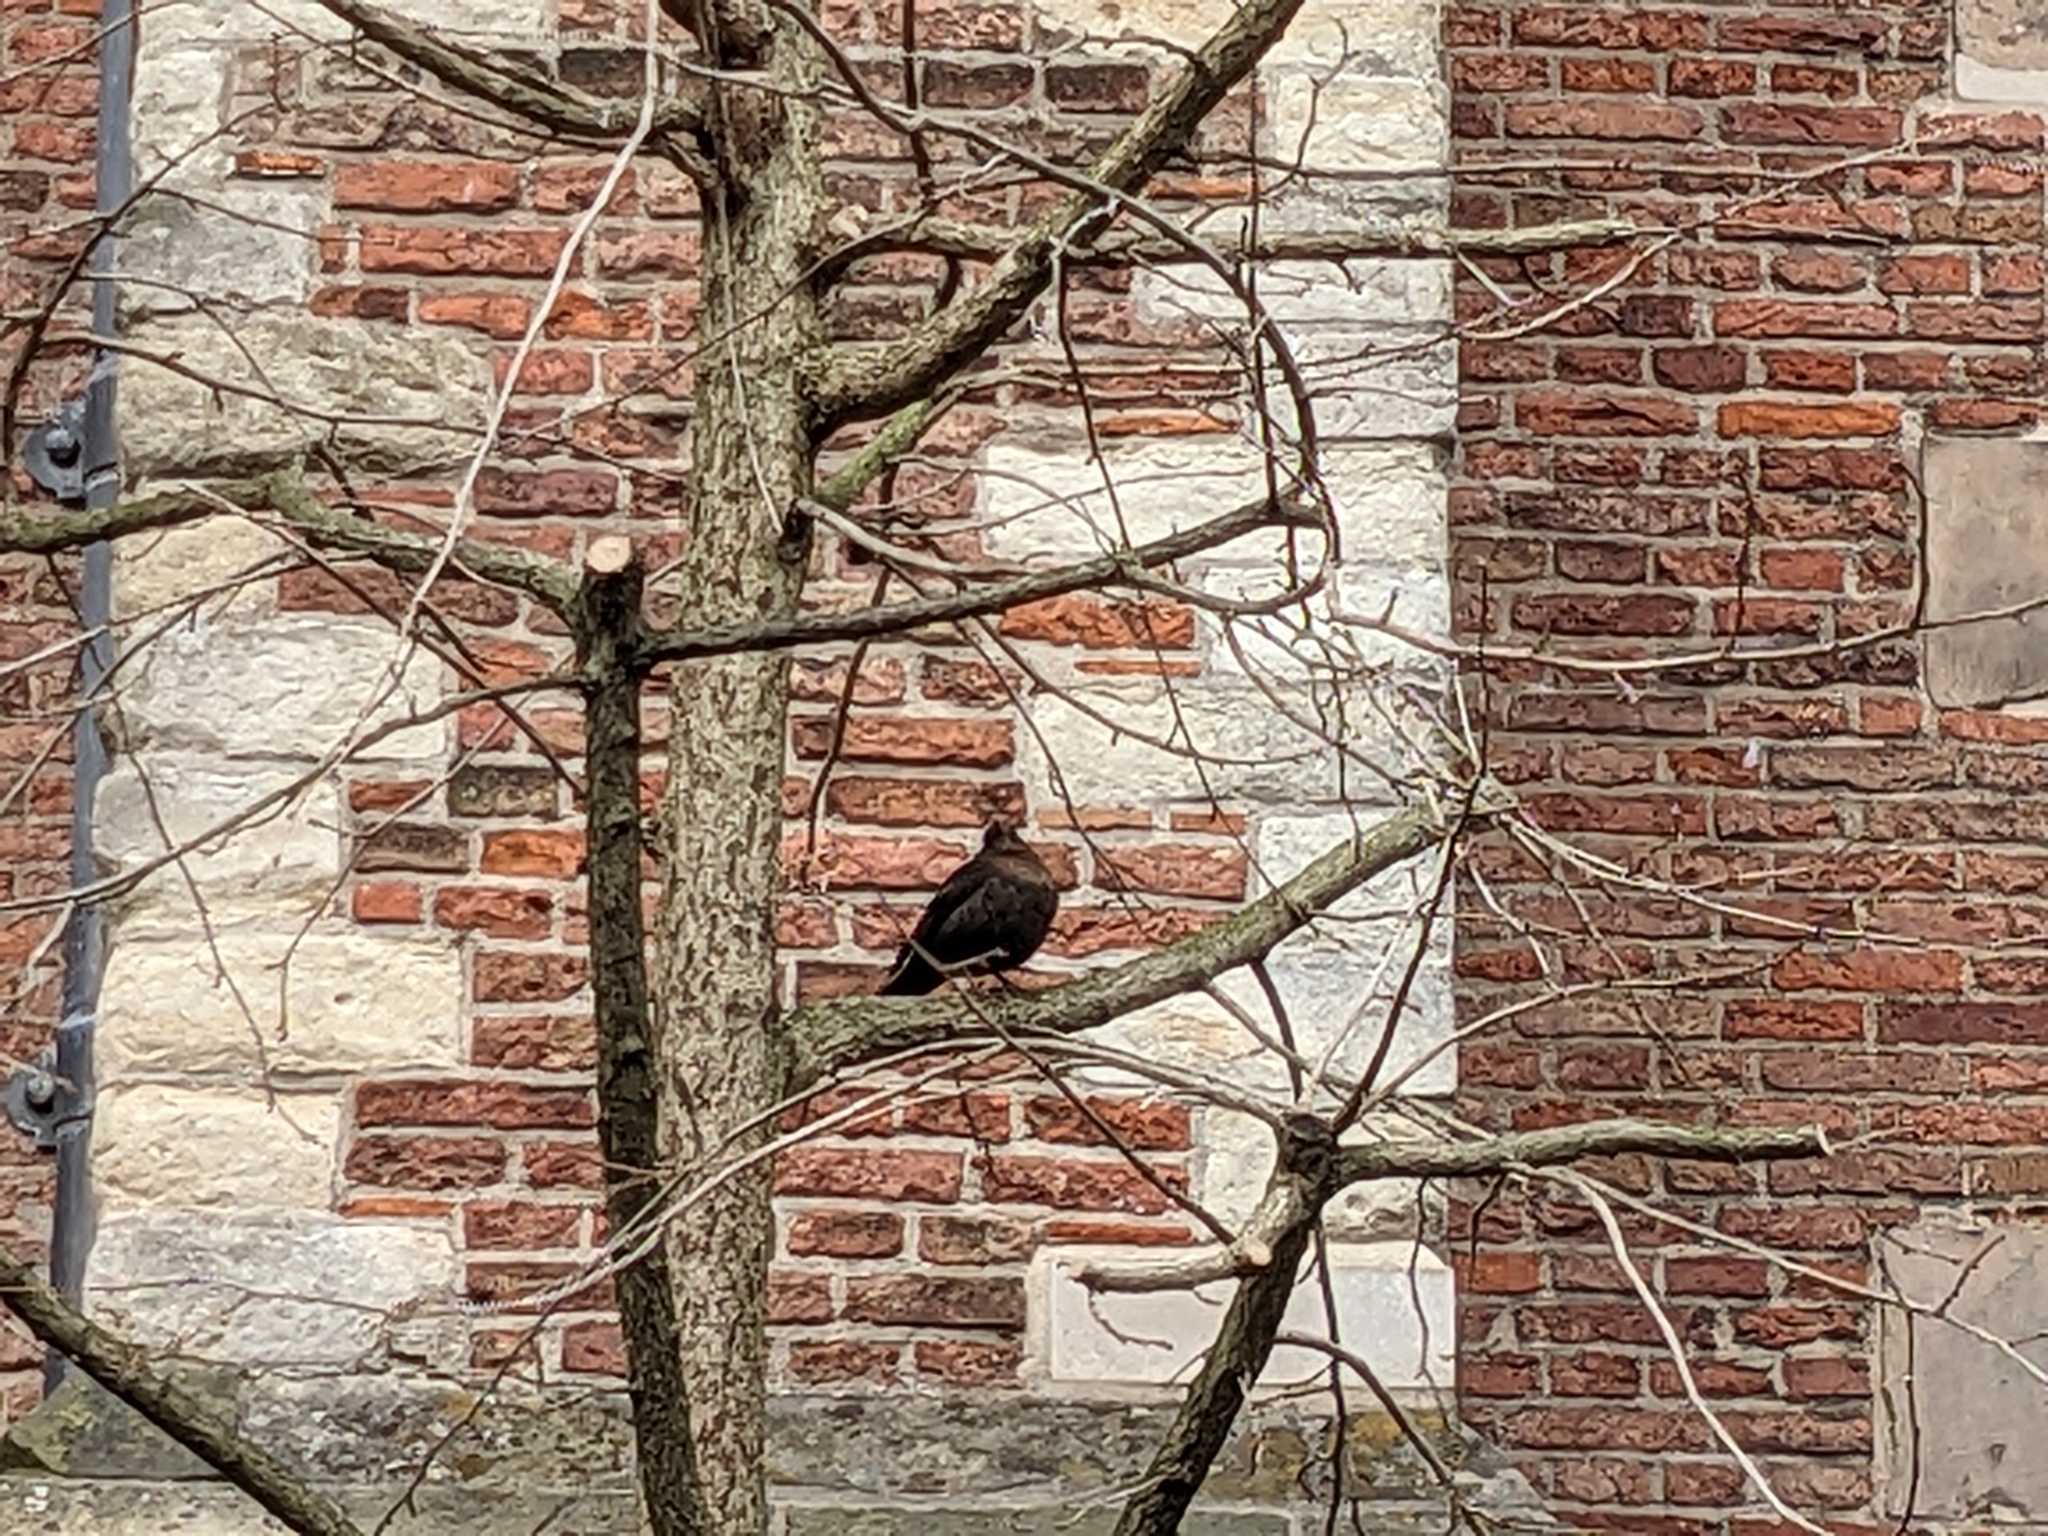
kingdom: Animalia
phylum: Chordata
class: Aves
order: Passeriformes
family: Turdidae
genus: Turdus
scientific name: Turdus merula
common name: Common blackbird
